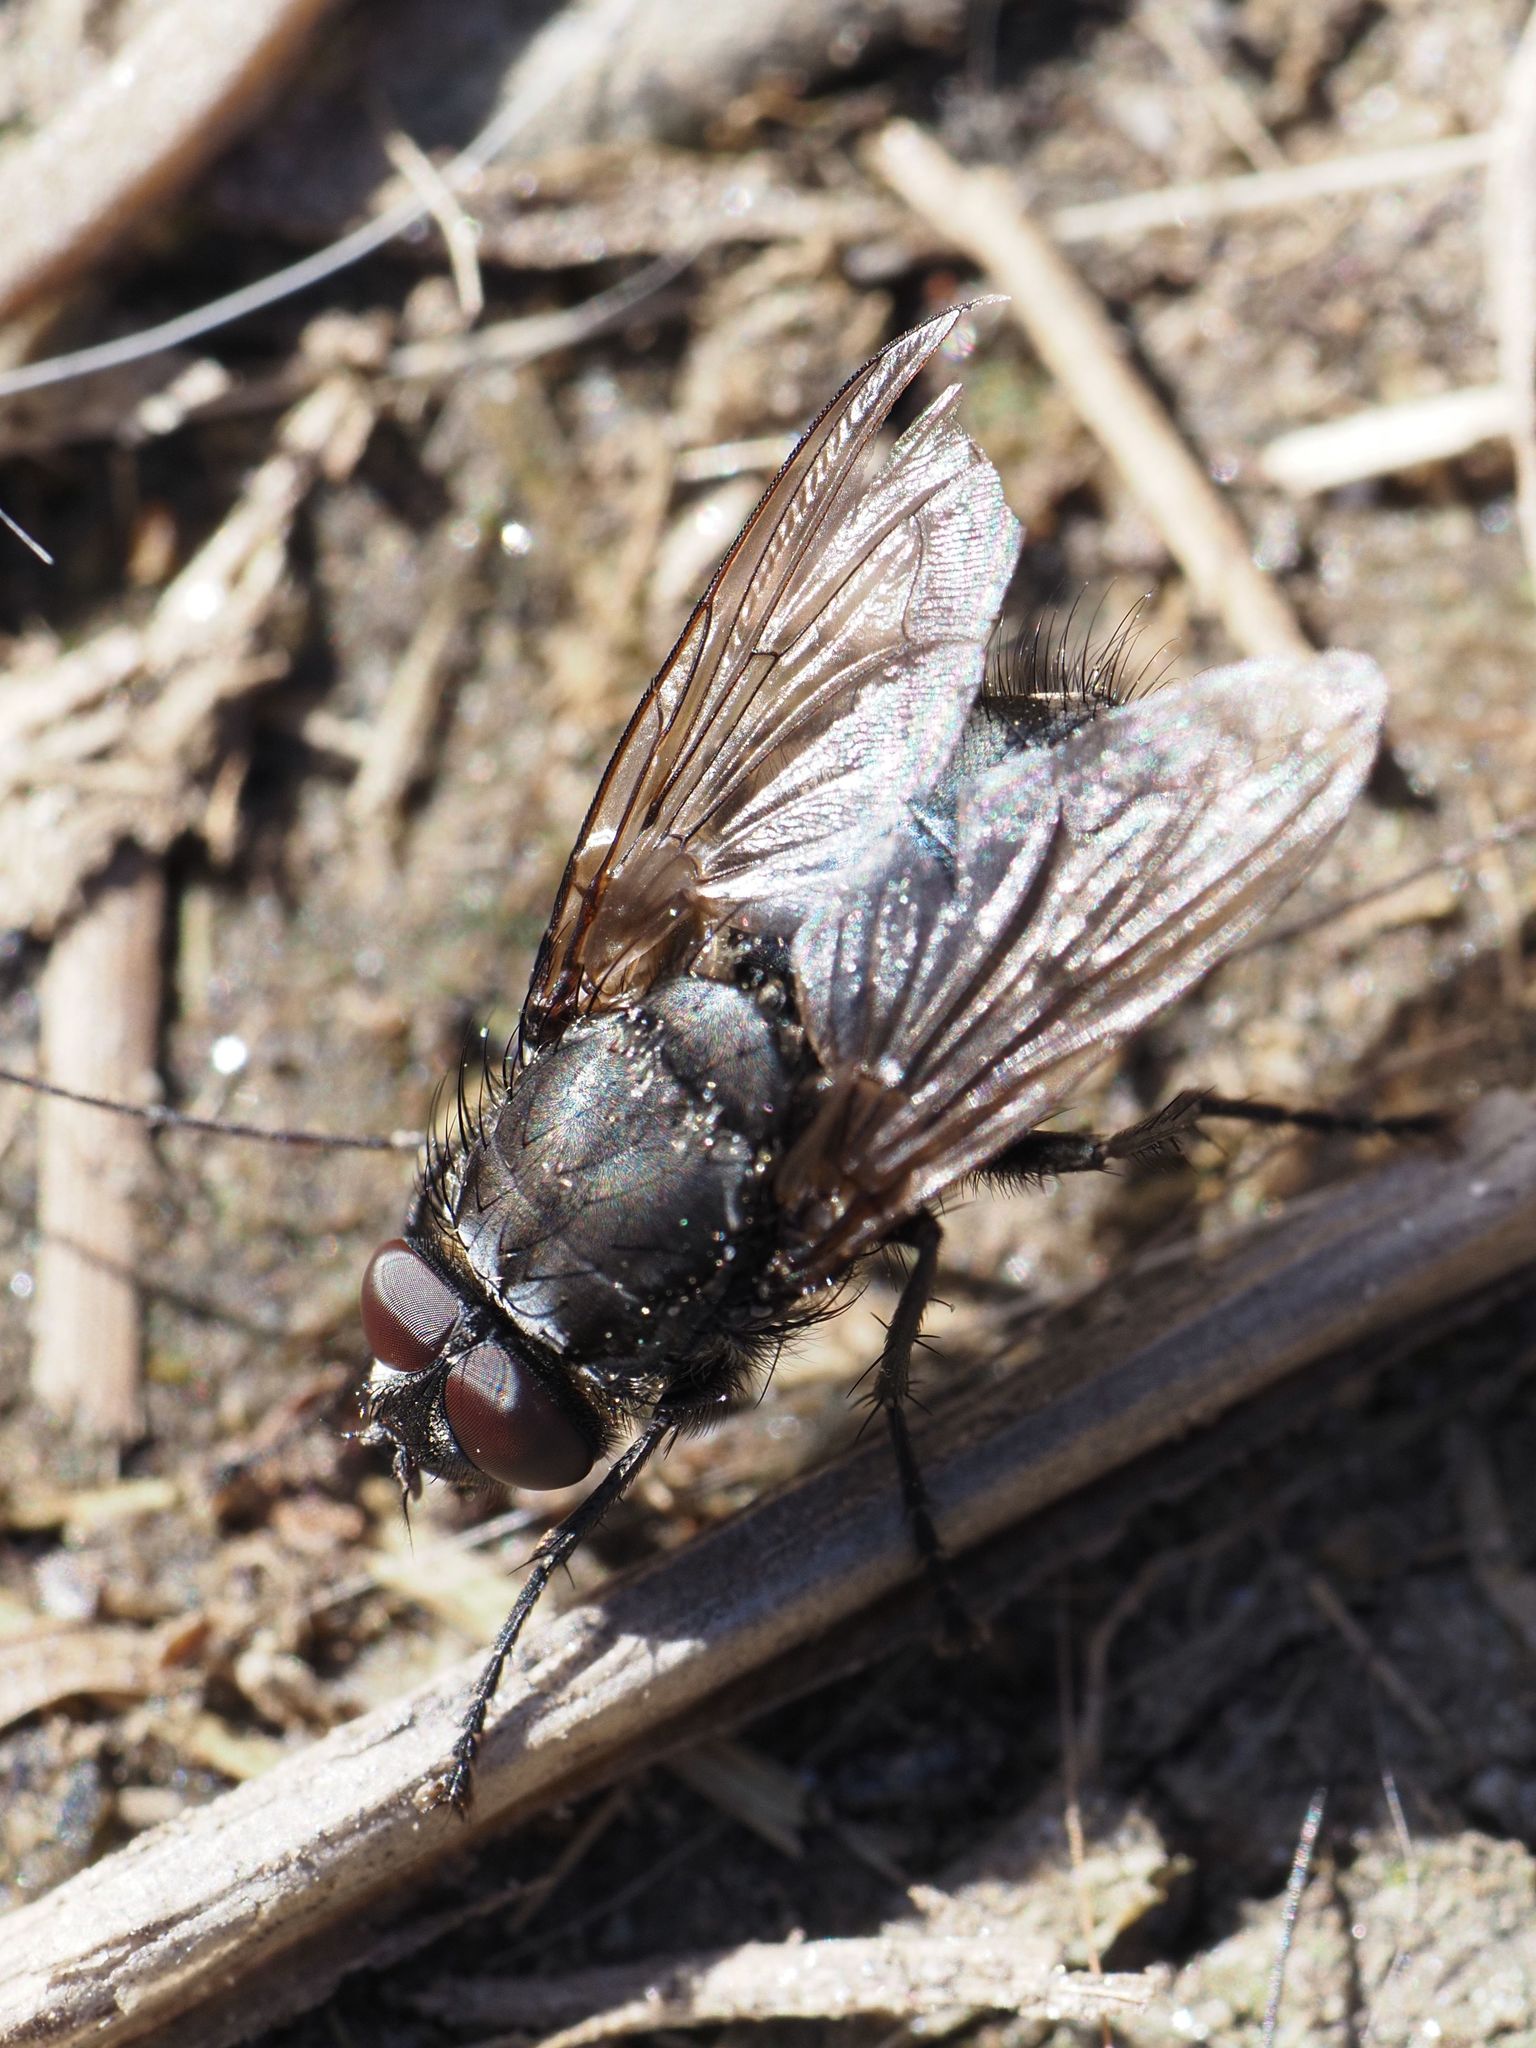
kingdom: Animalia
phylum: Arthropoda
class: Insecta
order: Diptera
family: Polleniidae
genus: Pollenia
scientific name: Pollenia vagabunda
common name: Vagabund cluster fly
